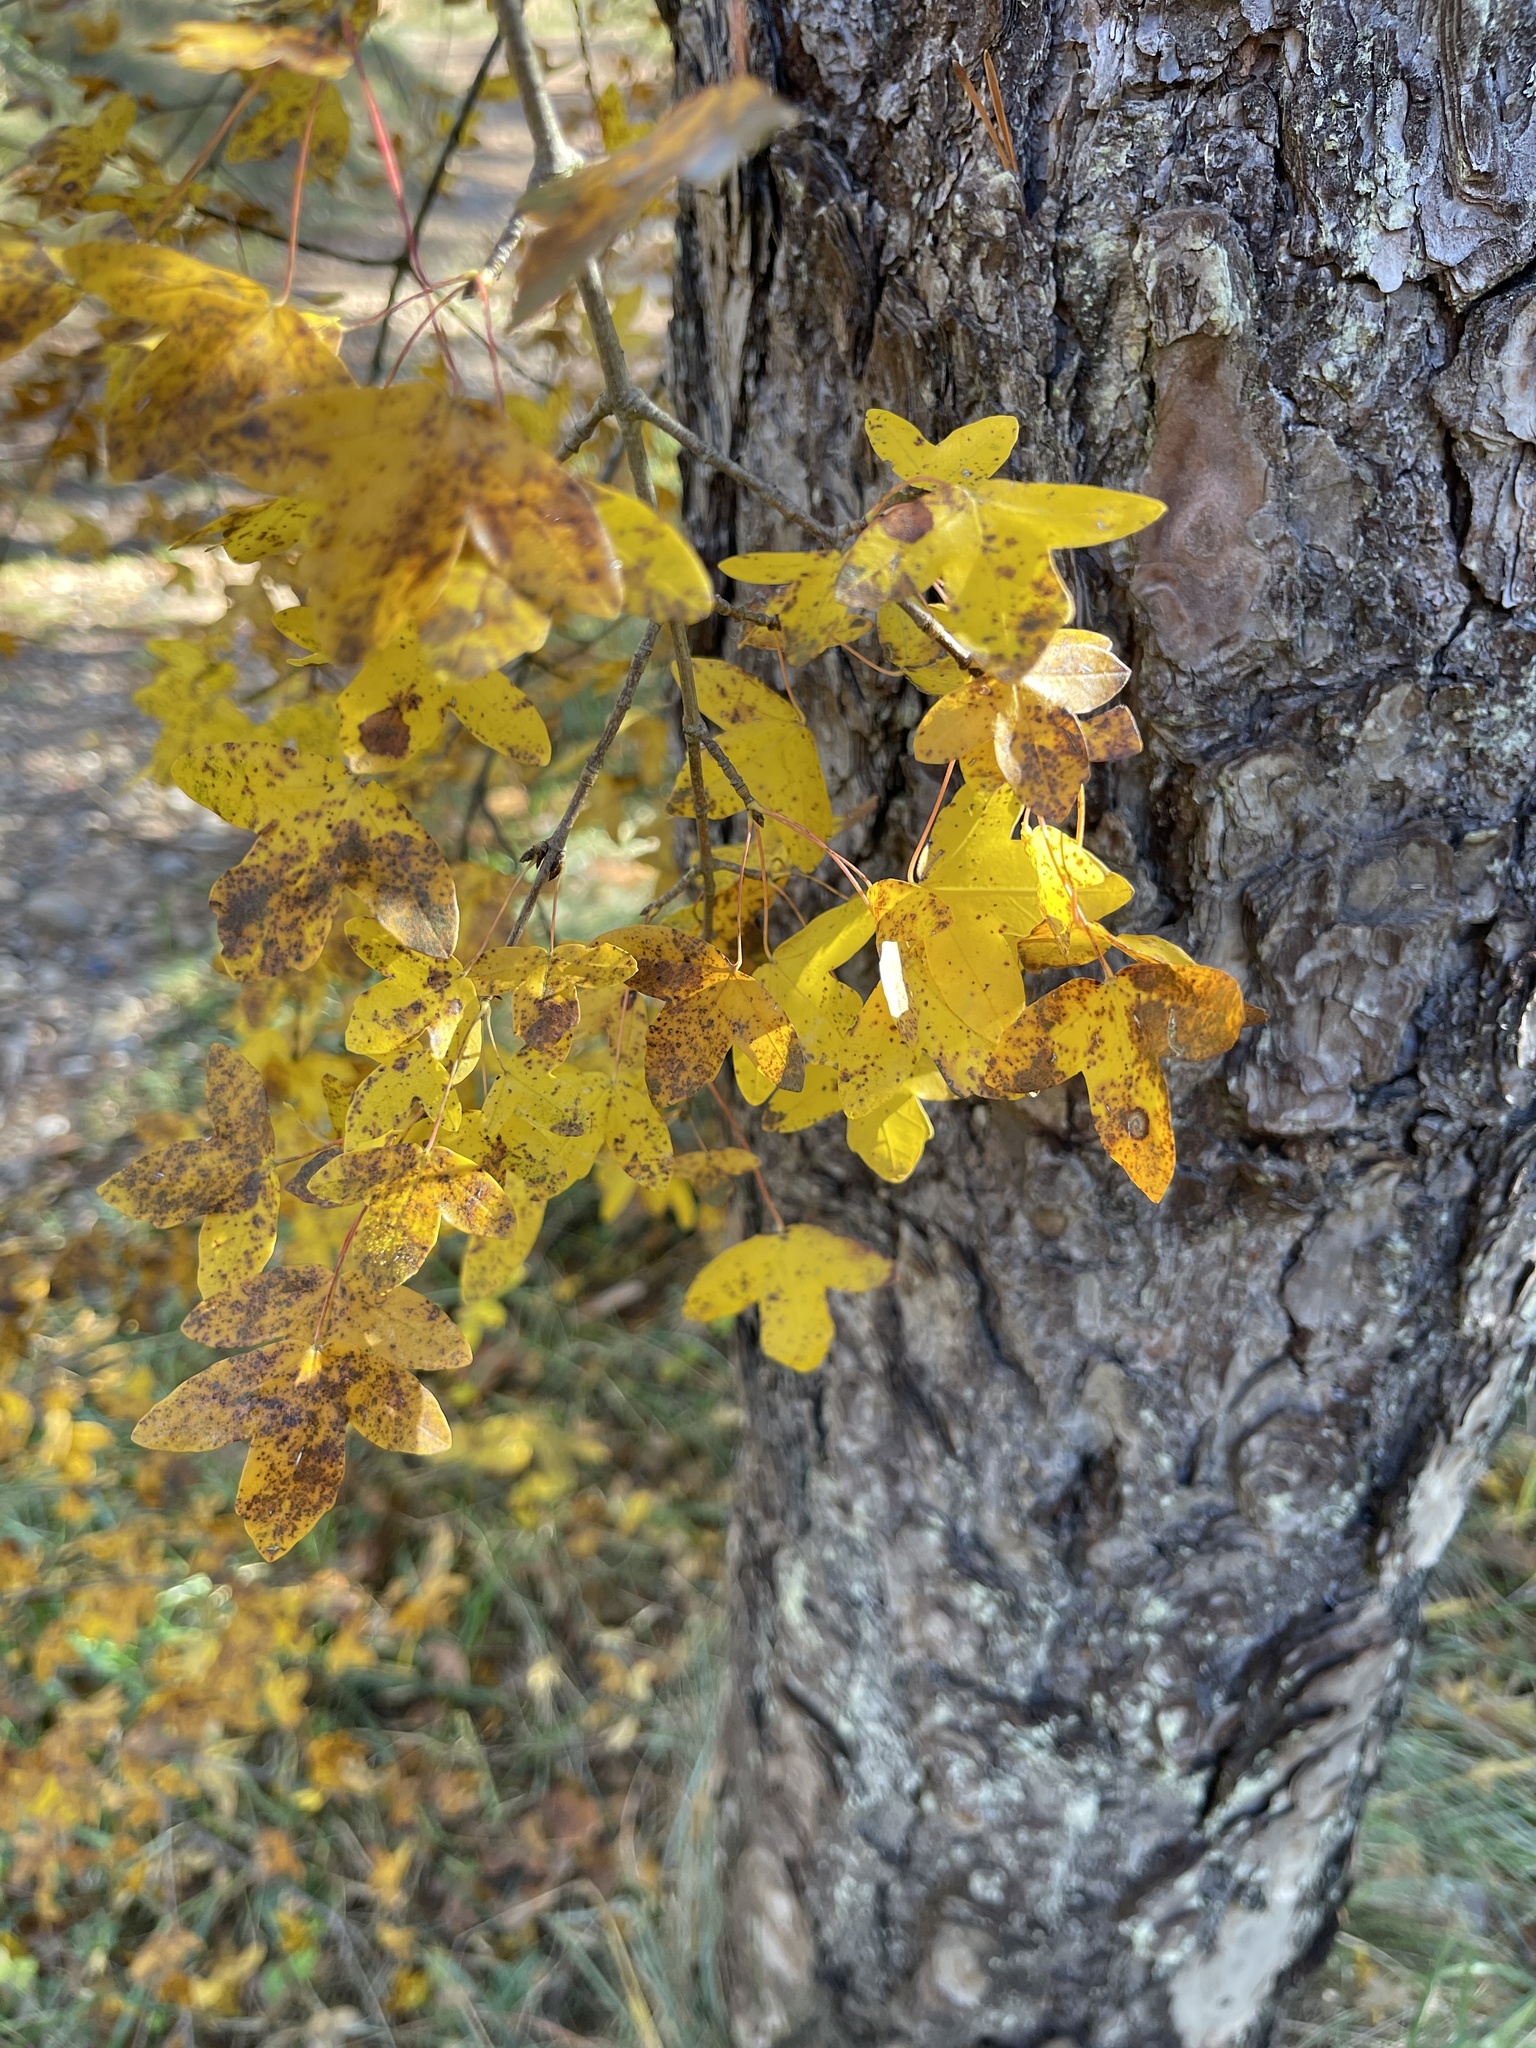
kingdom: Plantae
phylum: Tracheophyta
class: Magnoliopsida
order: Sapindales
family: Sapindaceae
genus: Acer
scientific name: Acer monspessulanum
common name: Montpellier maple
